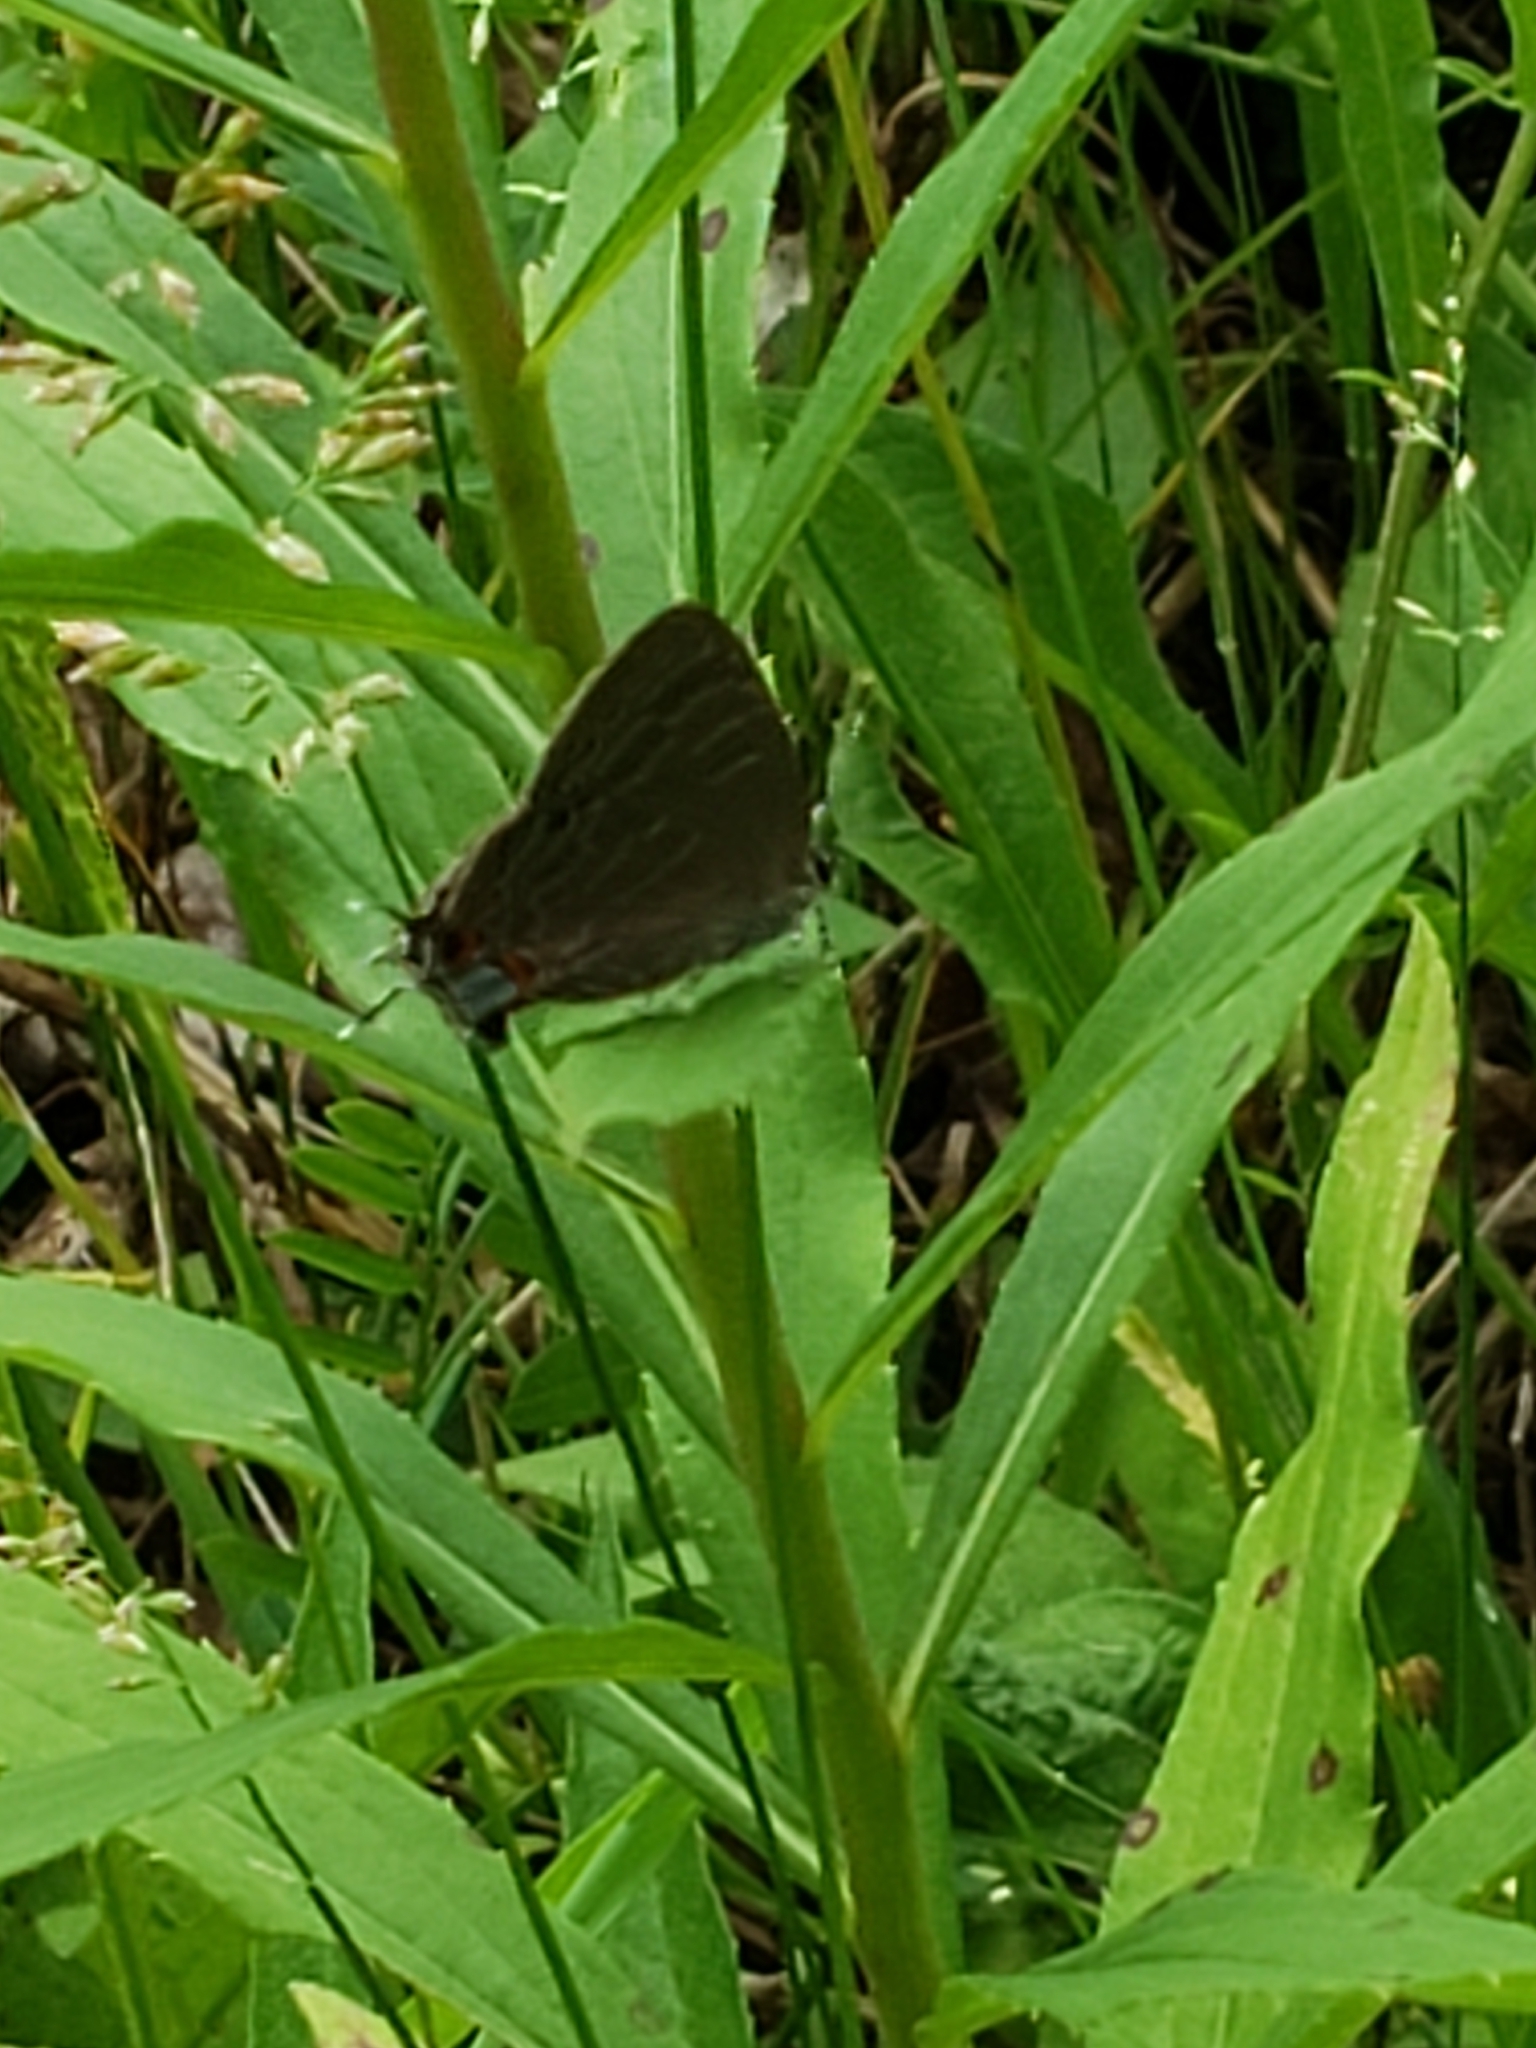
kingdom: Animalia
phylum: Arthropoda
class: Insecta
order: Lepidoptera
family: Lycaenidae
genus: Satyrium
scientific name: Satyrium liparops
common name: Striped hairstreak
